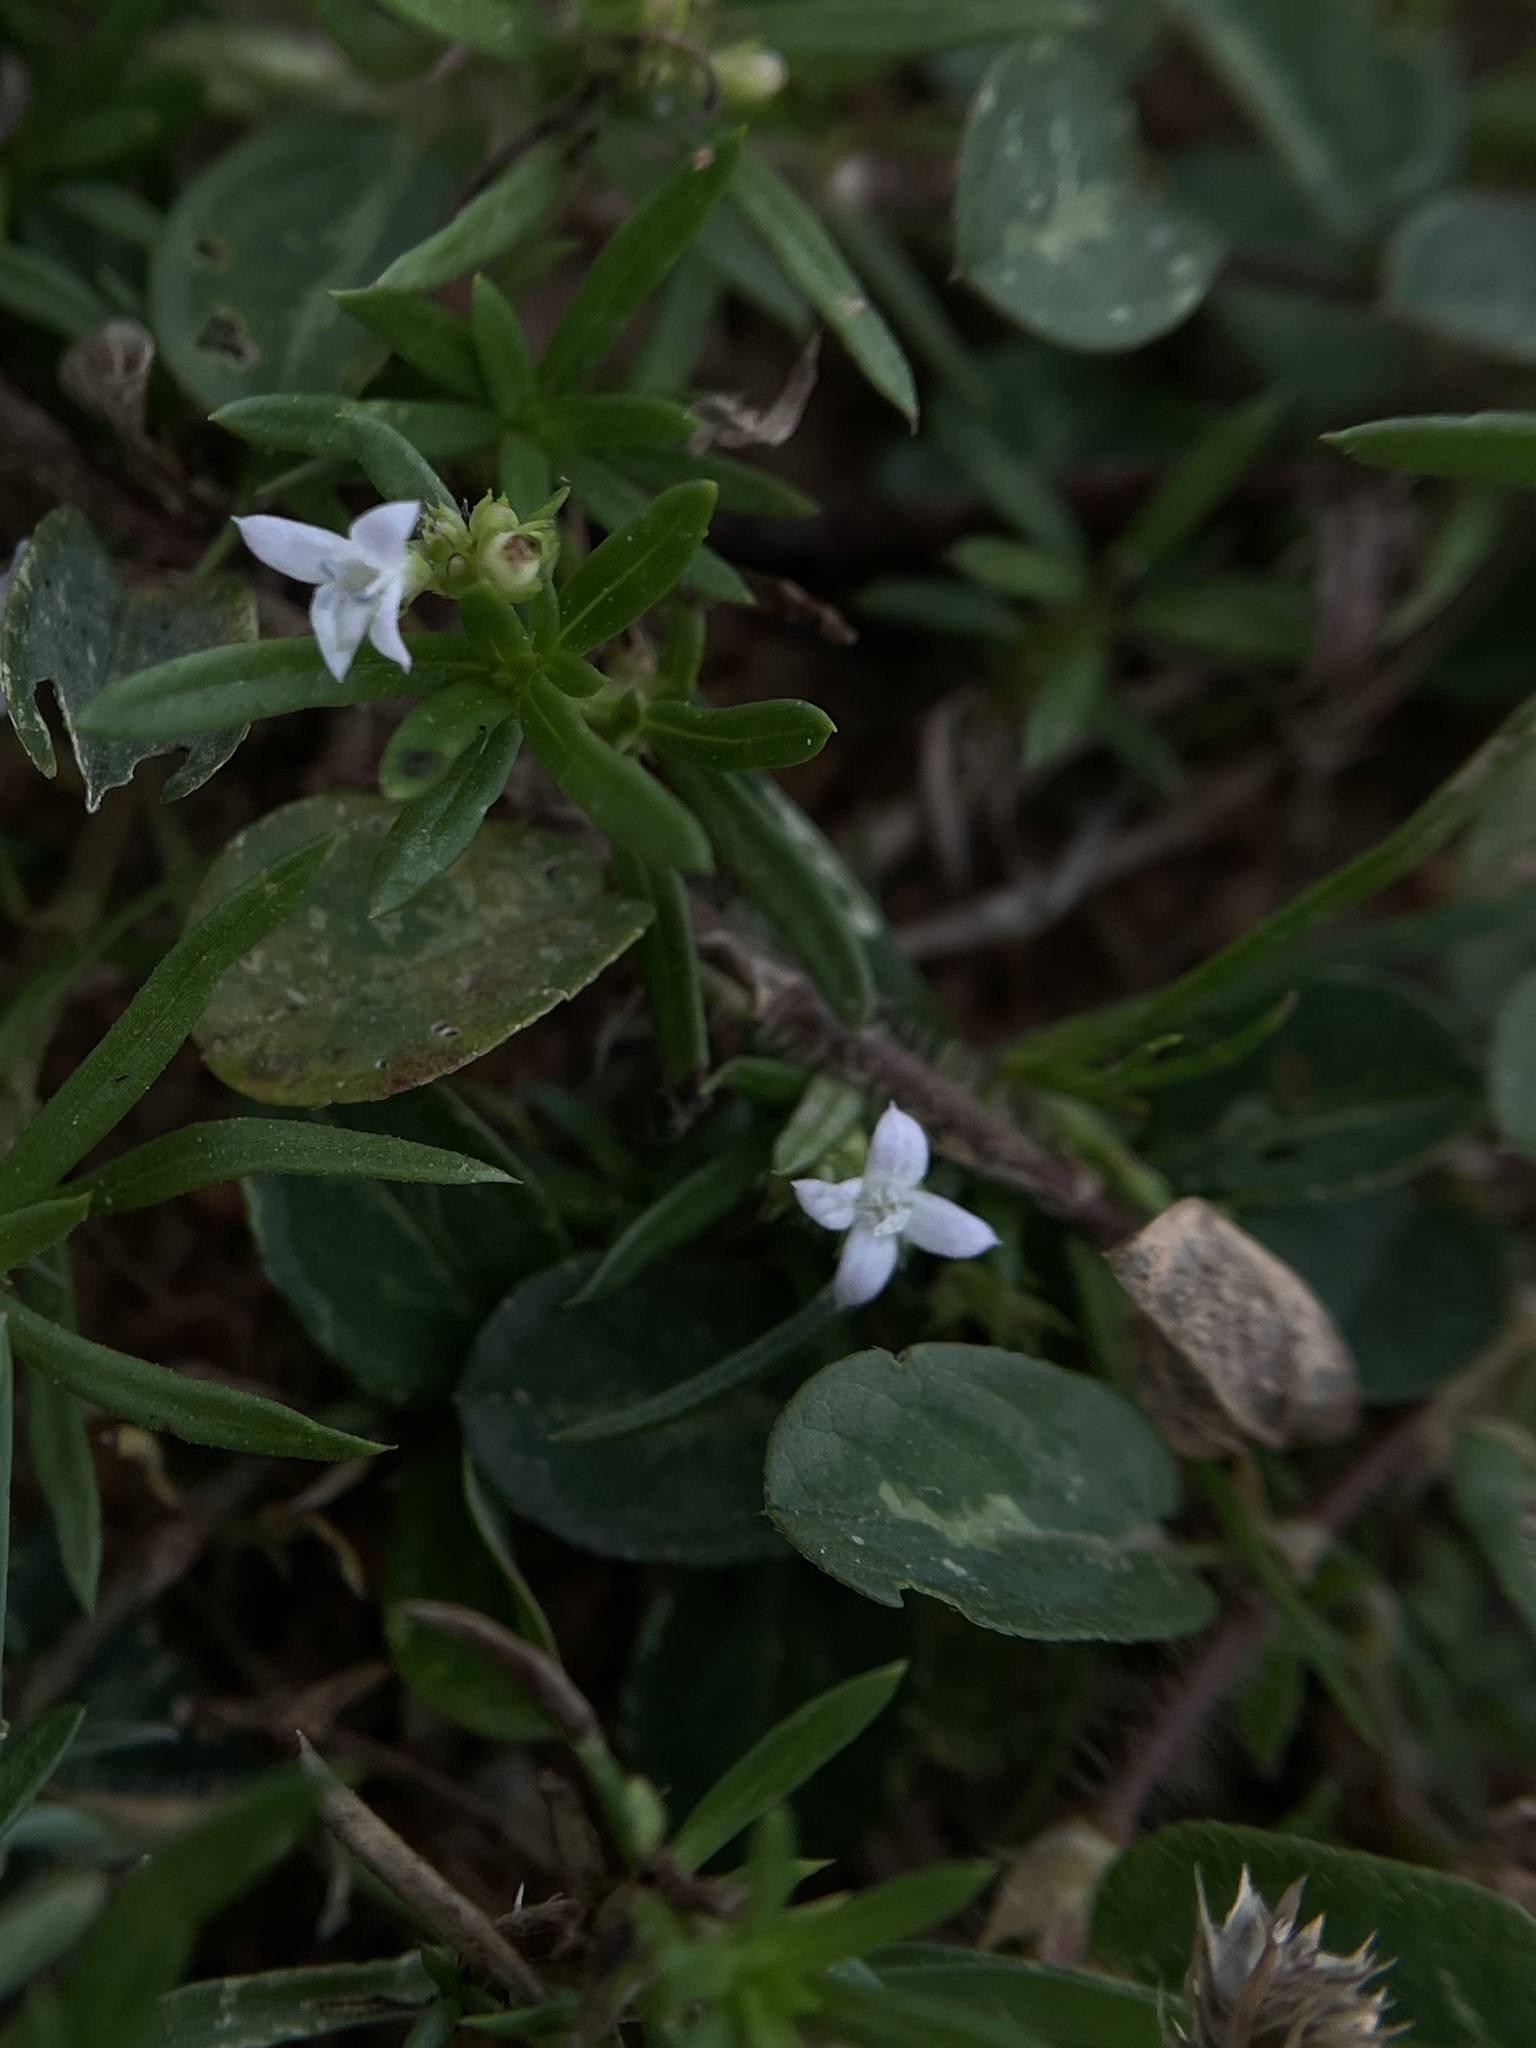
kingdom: Plantae
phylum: Tracheophyta
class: Magnoliopsida
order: Gentianales
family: Rubiaceae
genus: Kohautia
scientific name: Kohautia aspera
